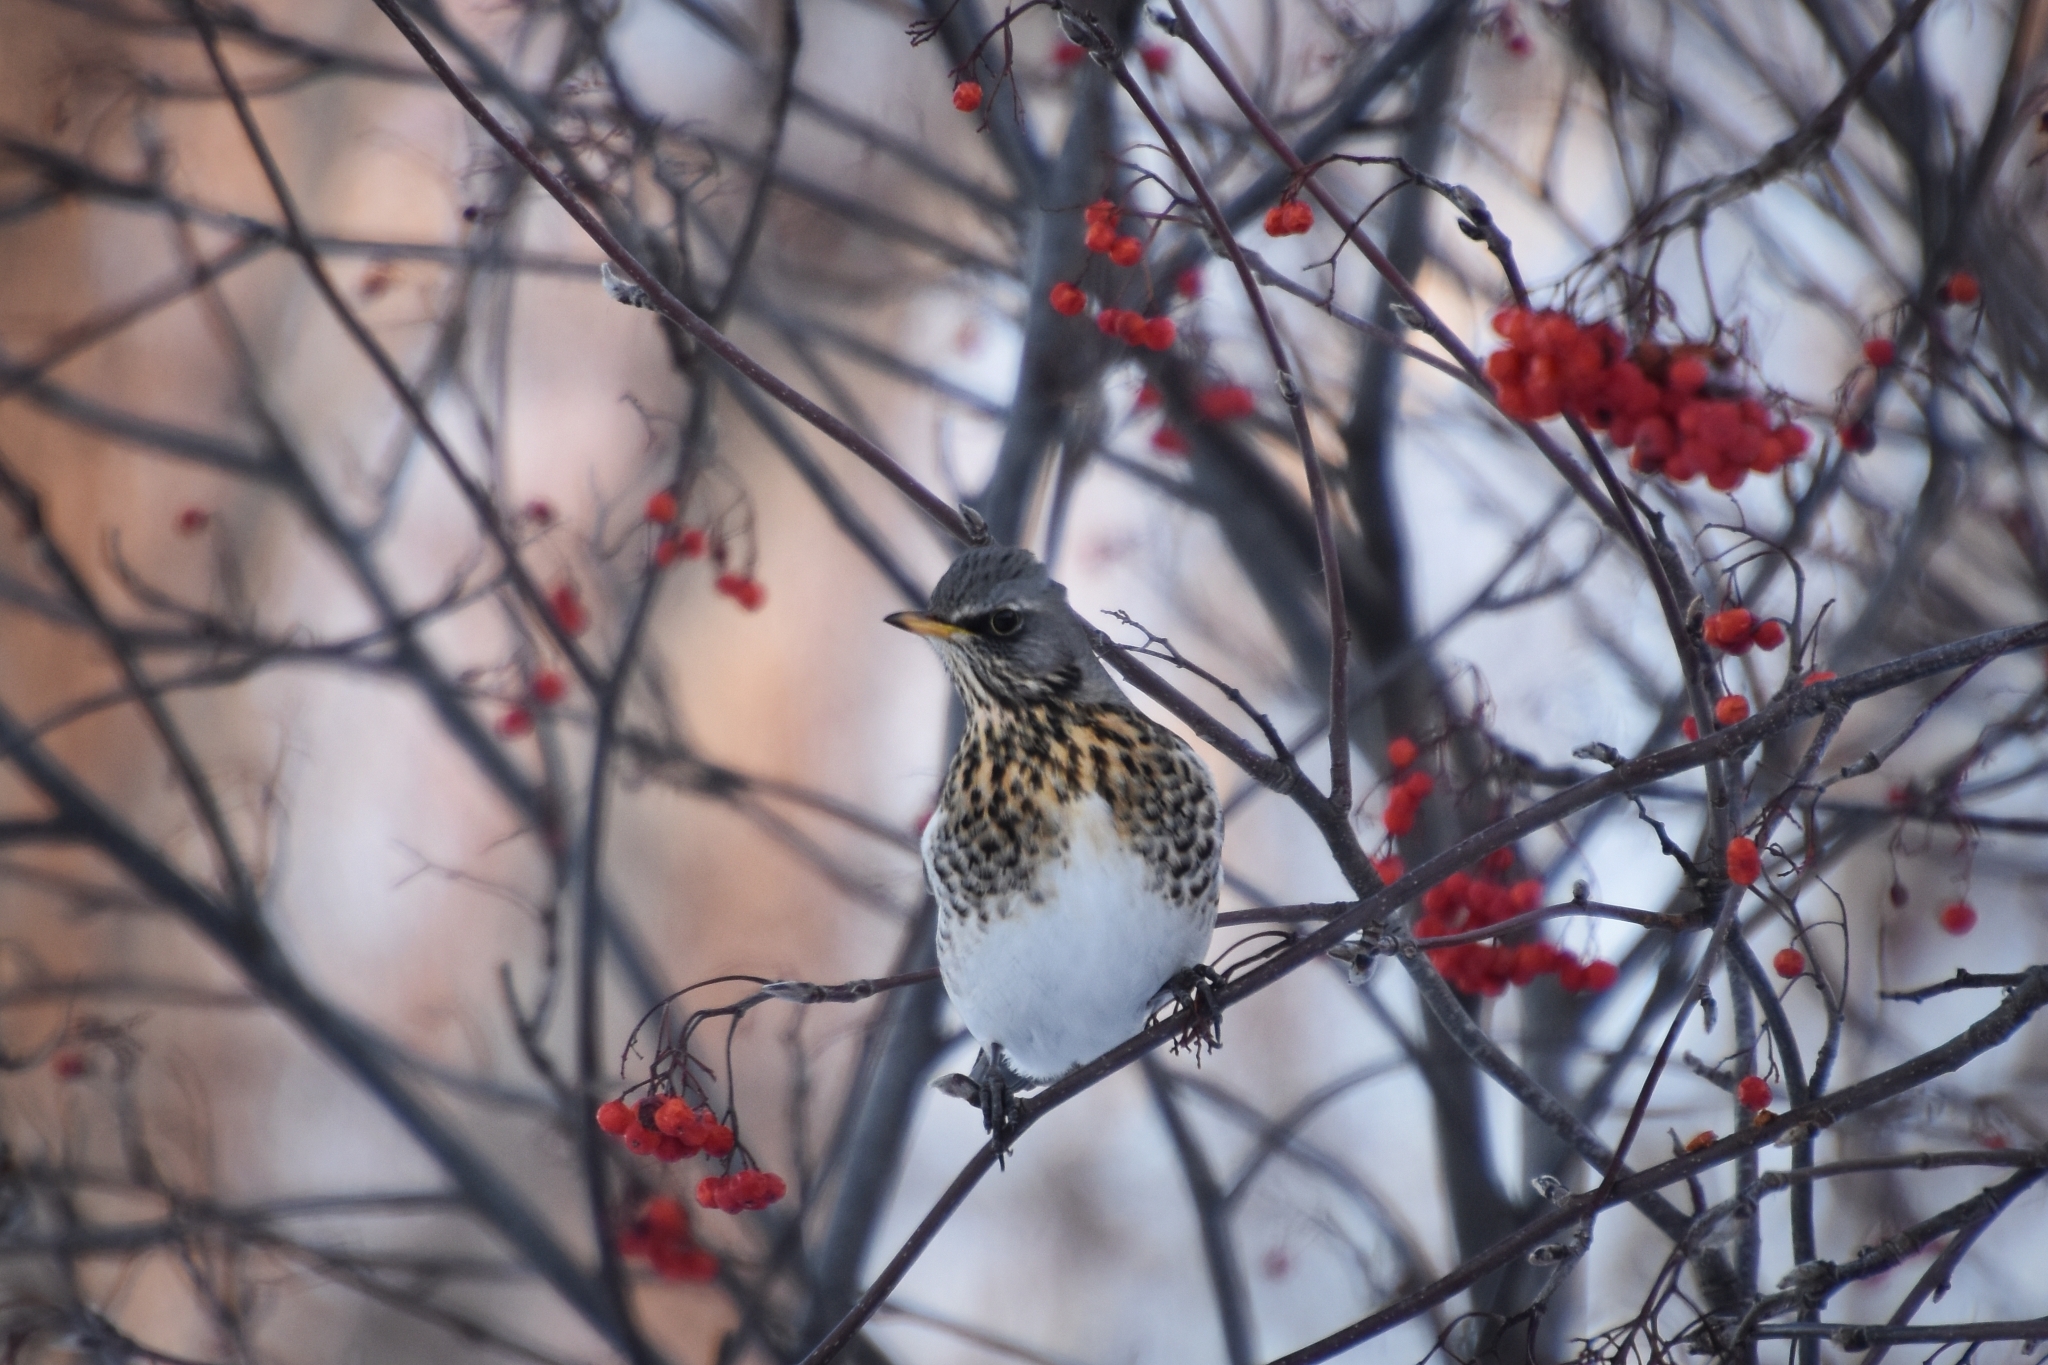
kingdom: Animalia
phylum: Chordata
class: Aves
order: Passeriformes
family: Turdidae
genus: Turdus
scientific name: Turdus pilaris
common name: Fieldfare
